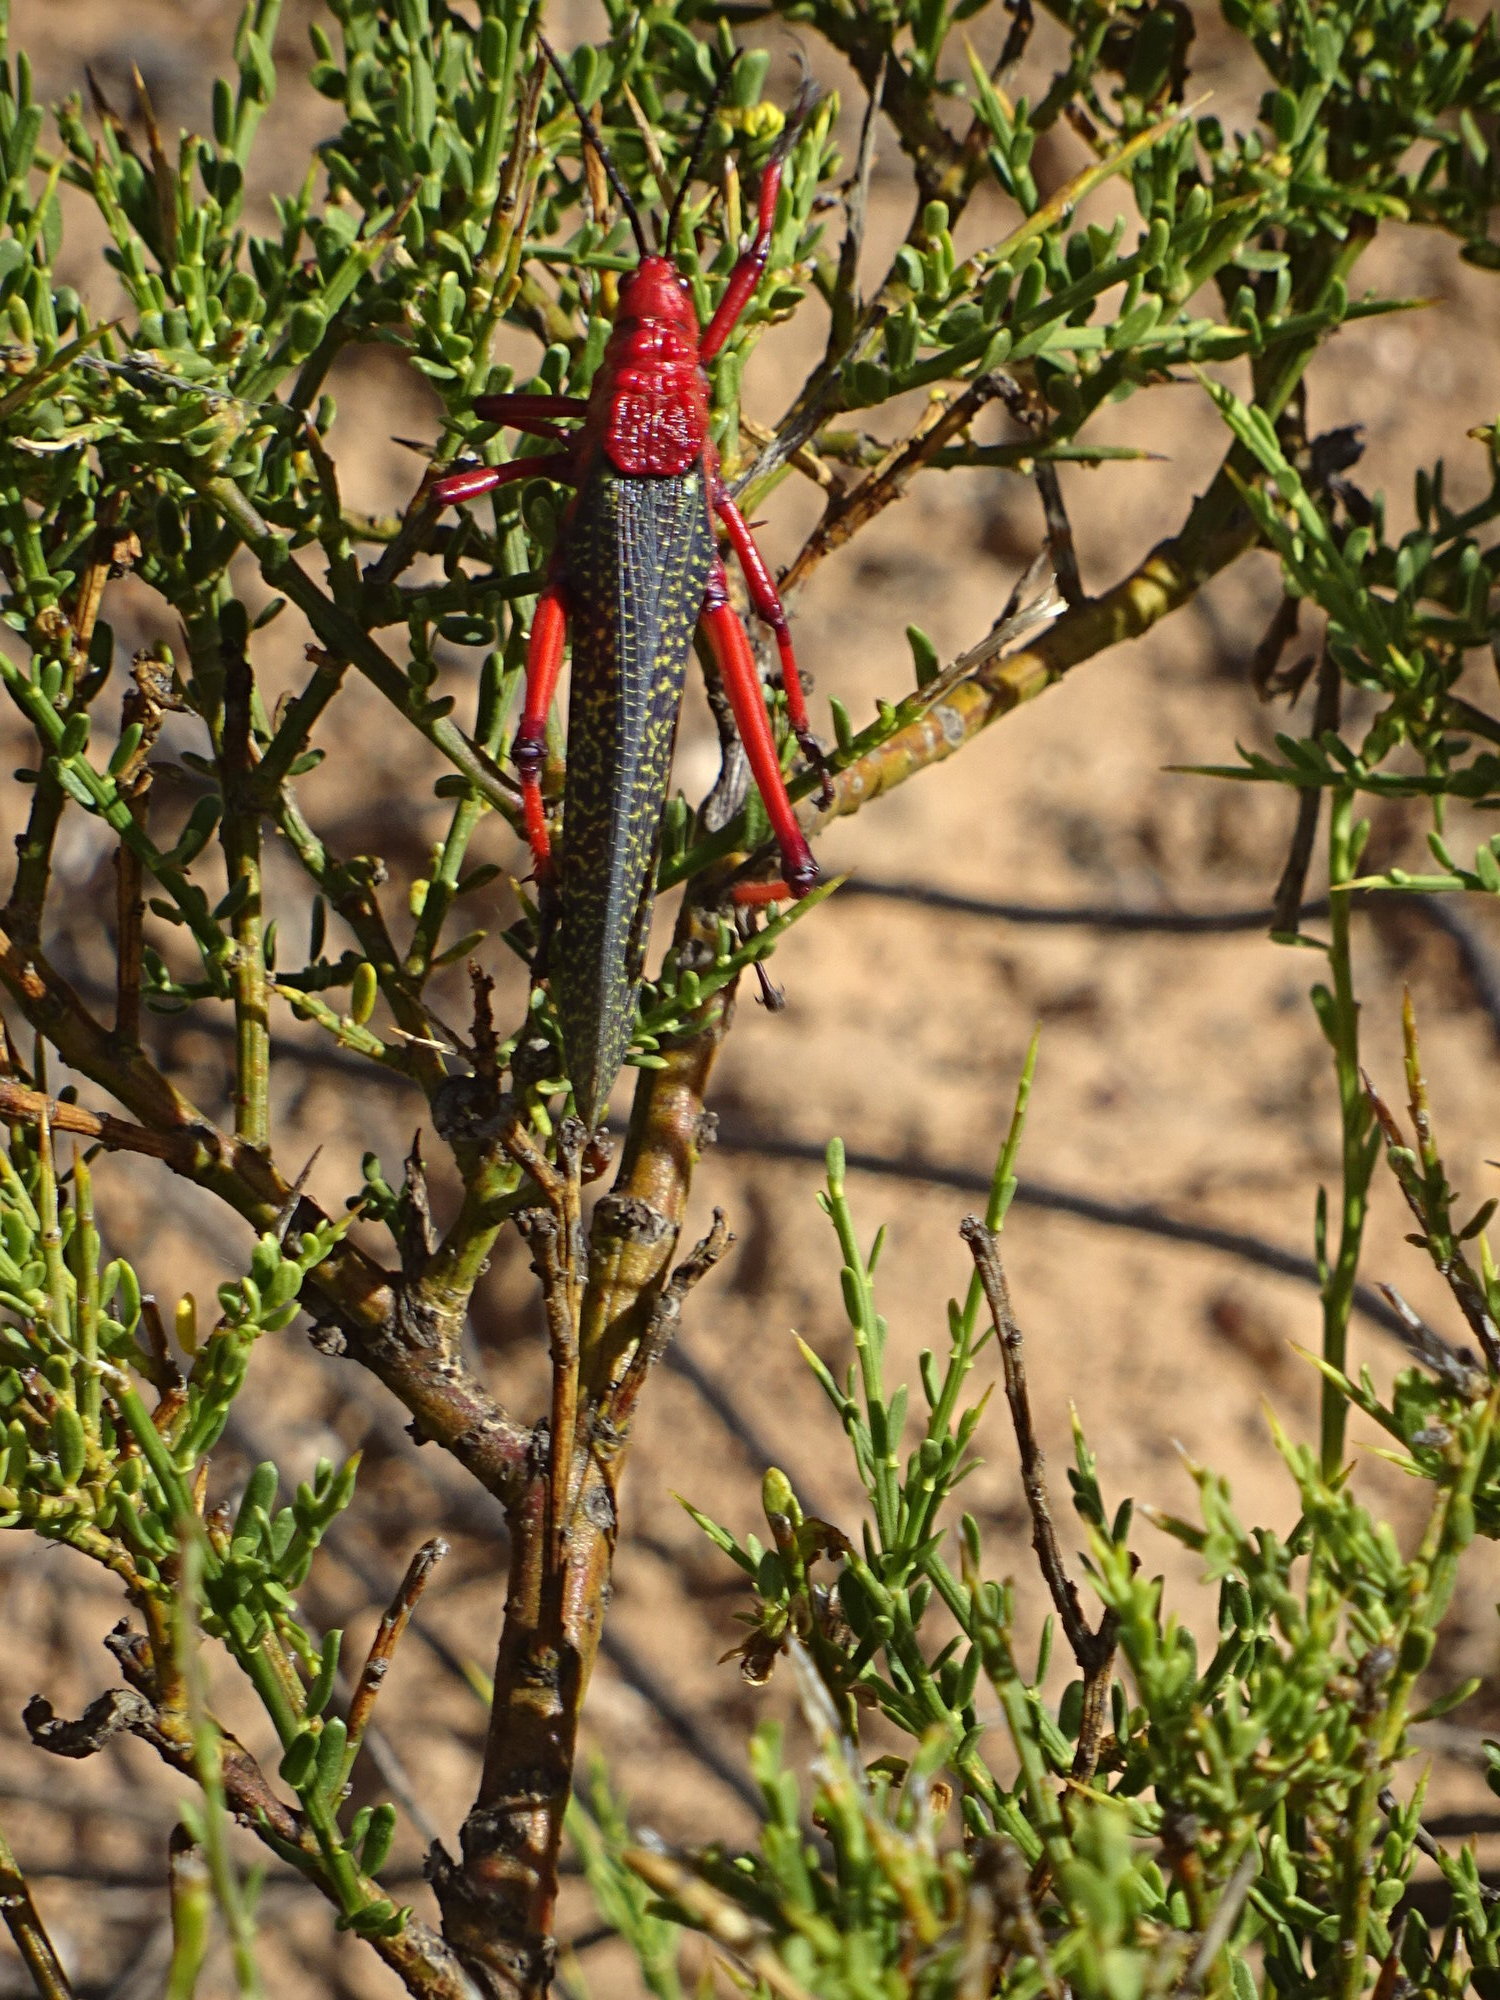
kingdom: Animalia
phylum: Arthropoda
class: Insecta
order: Orthoptera
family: Pyrgomorphidae
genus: Phymateus
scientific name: Phymateus morbillosus
